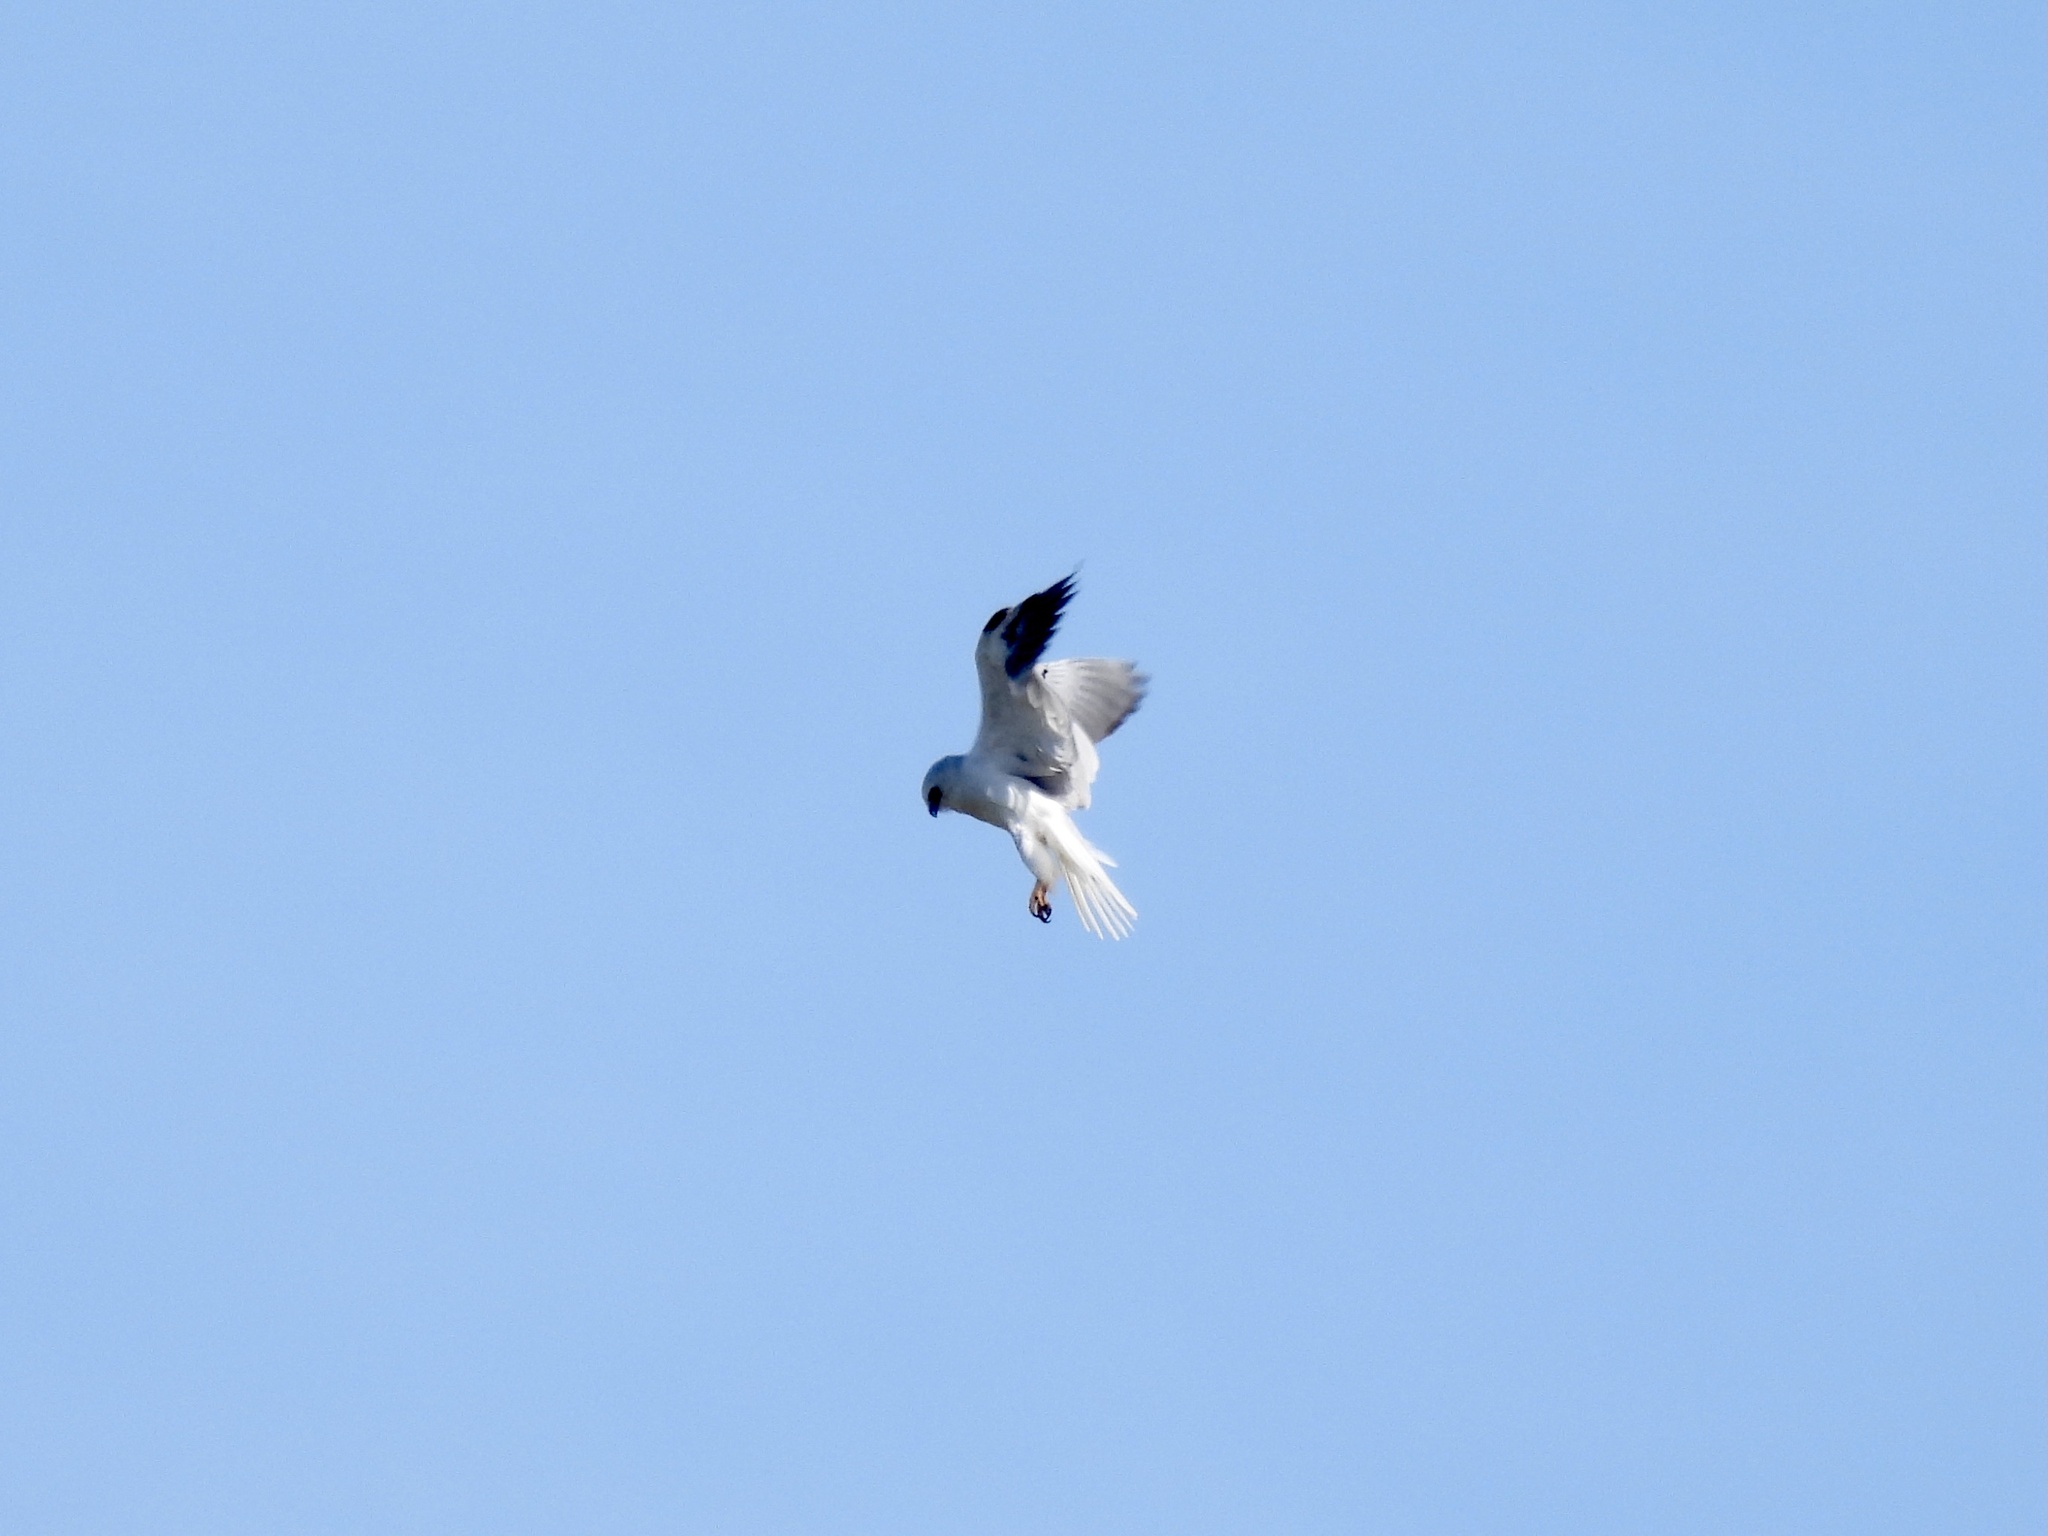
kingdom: Animalia
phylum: Chordata
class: Aves
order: Accipitriformes
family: Accipitridae
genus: Elanus
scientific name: Elanus leucurus
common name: White-tailed kite
